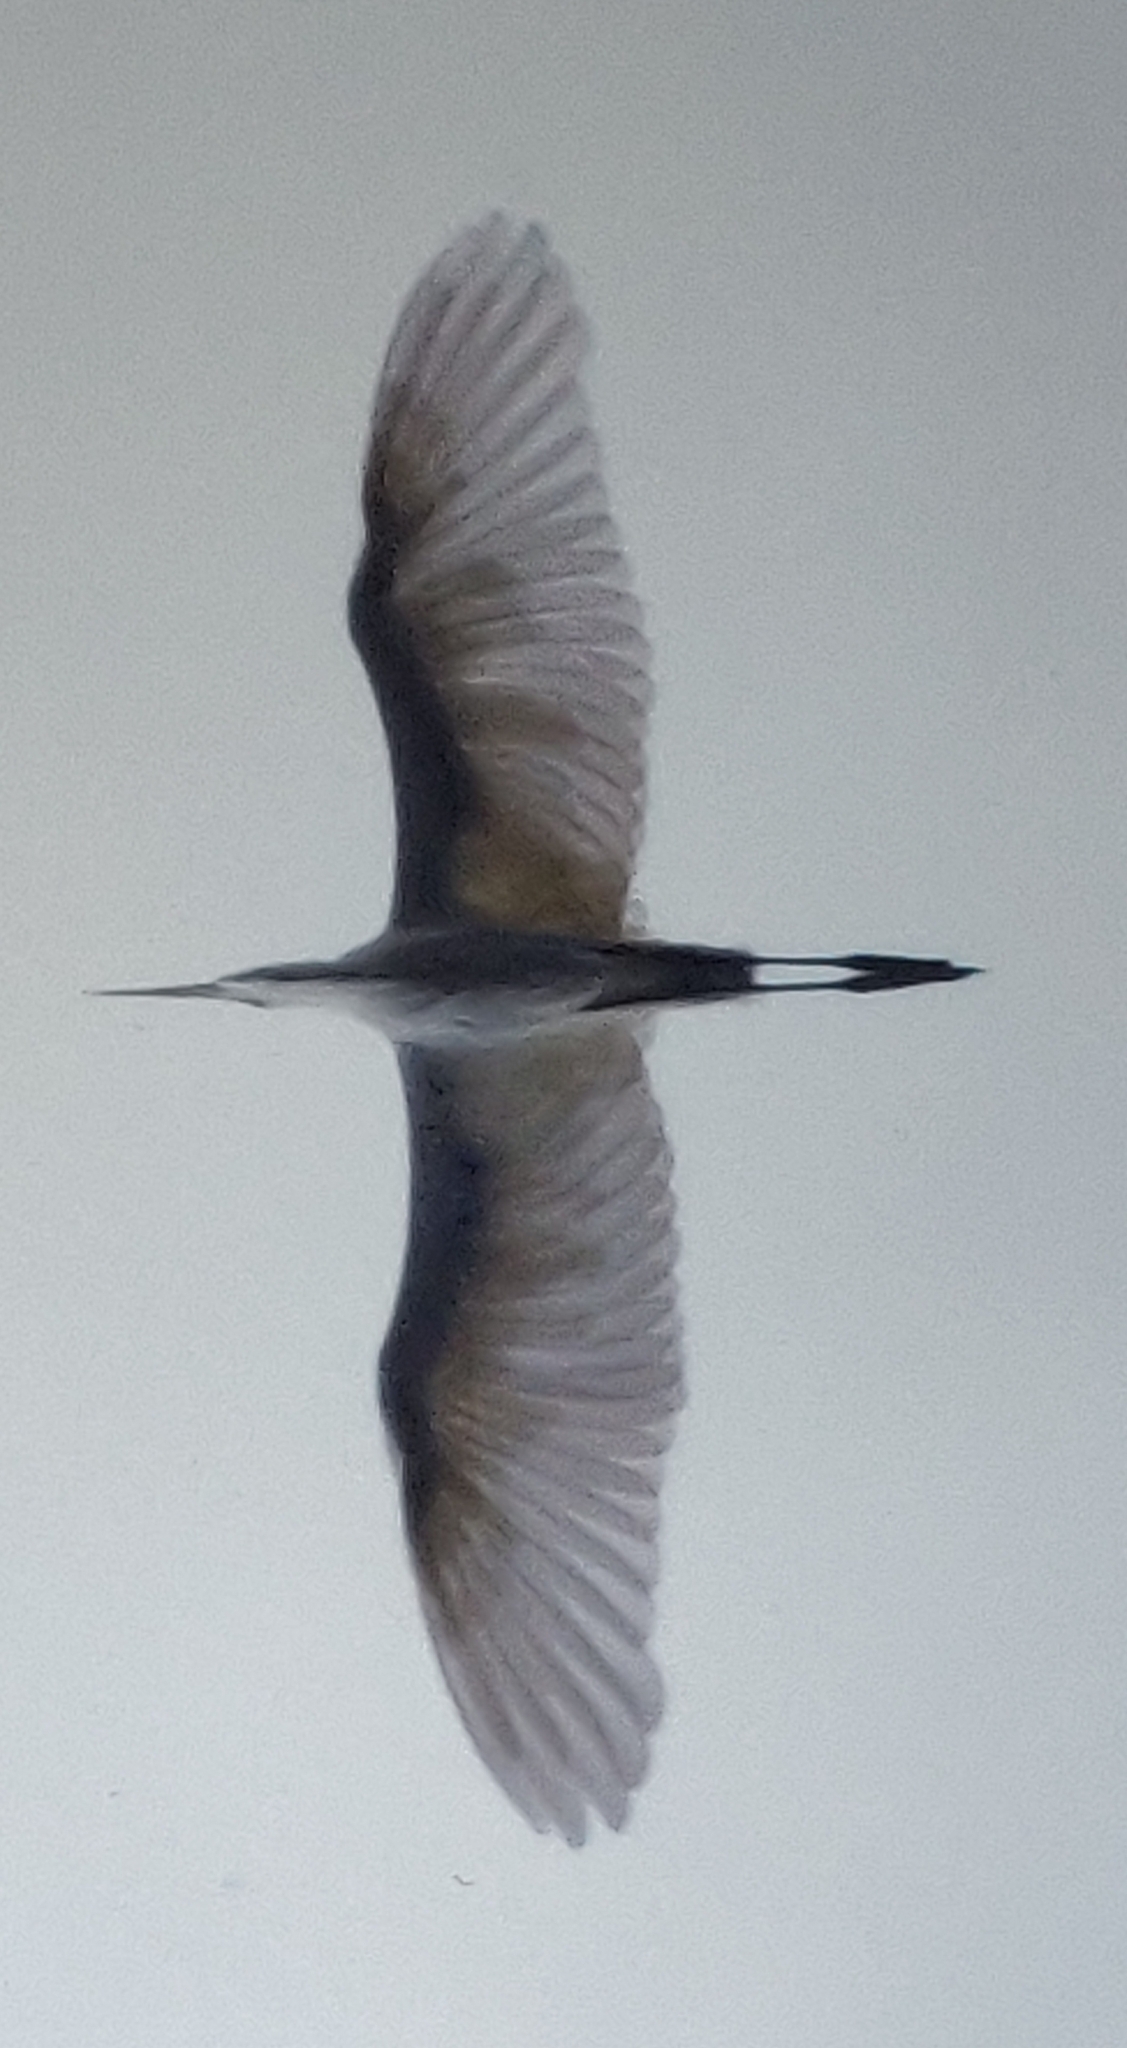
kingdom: Animalia
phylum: Chordata
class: Aves
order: Pelecaniformes
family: Ardeidae
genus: Ardea
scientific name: Ardea alba
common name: Great egret
